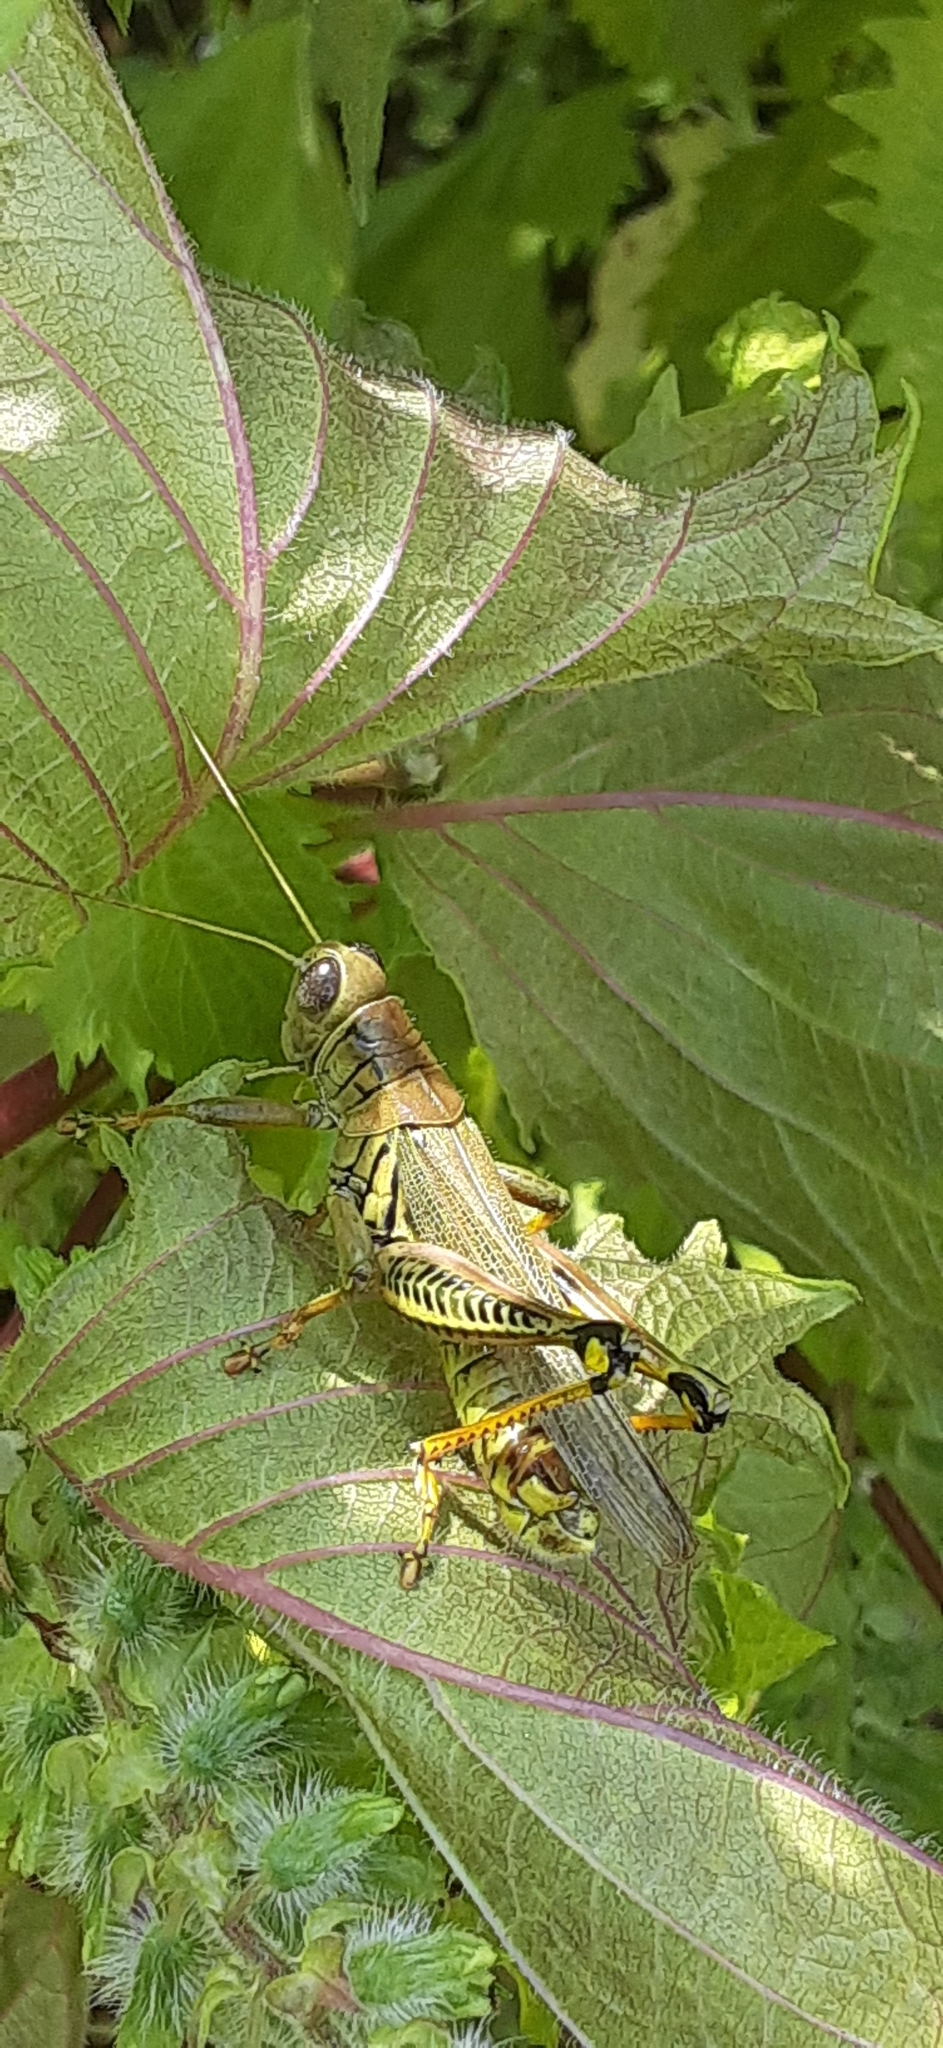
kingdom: Animalia
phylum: Arthropoda
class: Insecta
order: Orthoptera
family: Acrididae
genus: Melanoplus
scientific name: Melanoplus differentialis
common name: Differential grasshopper
